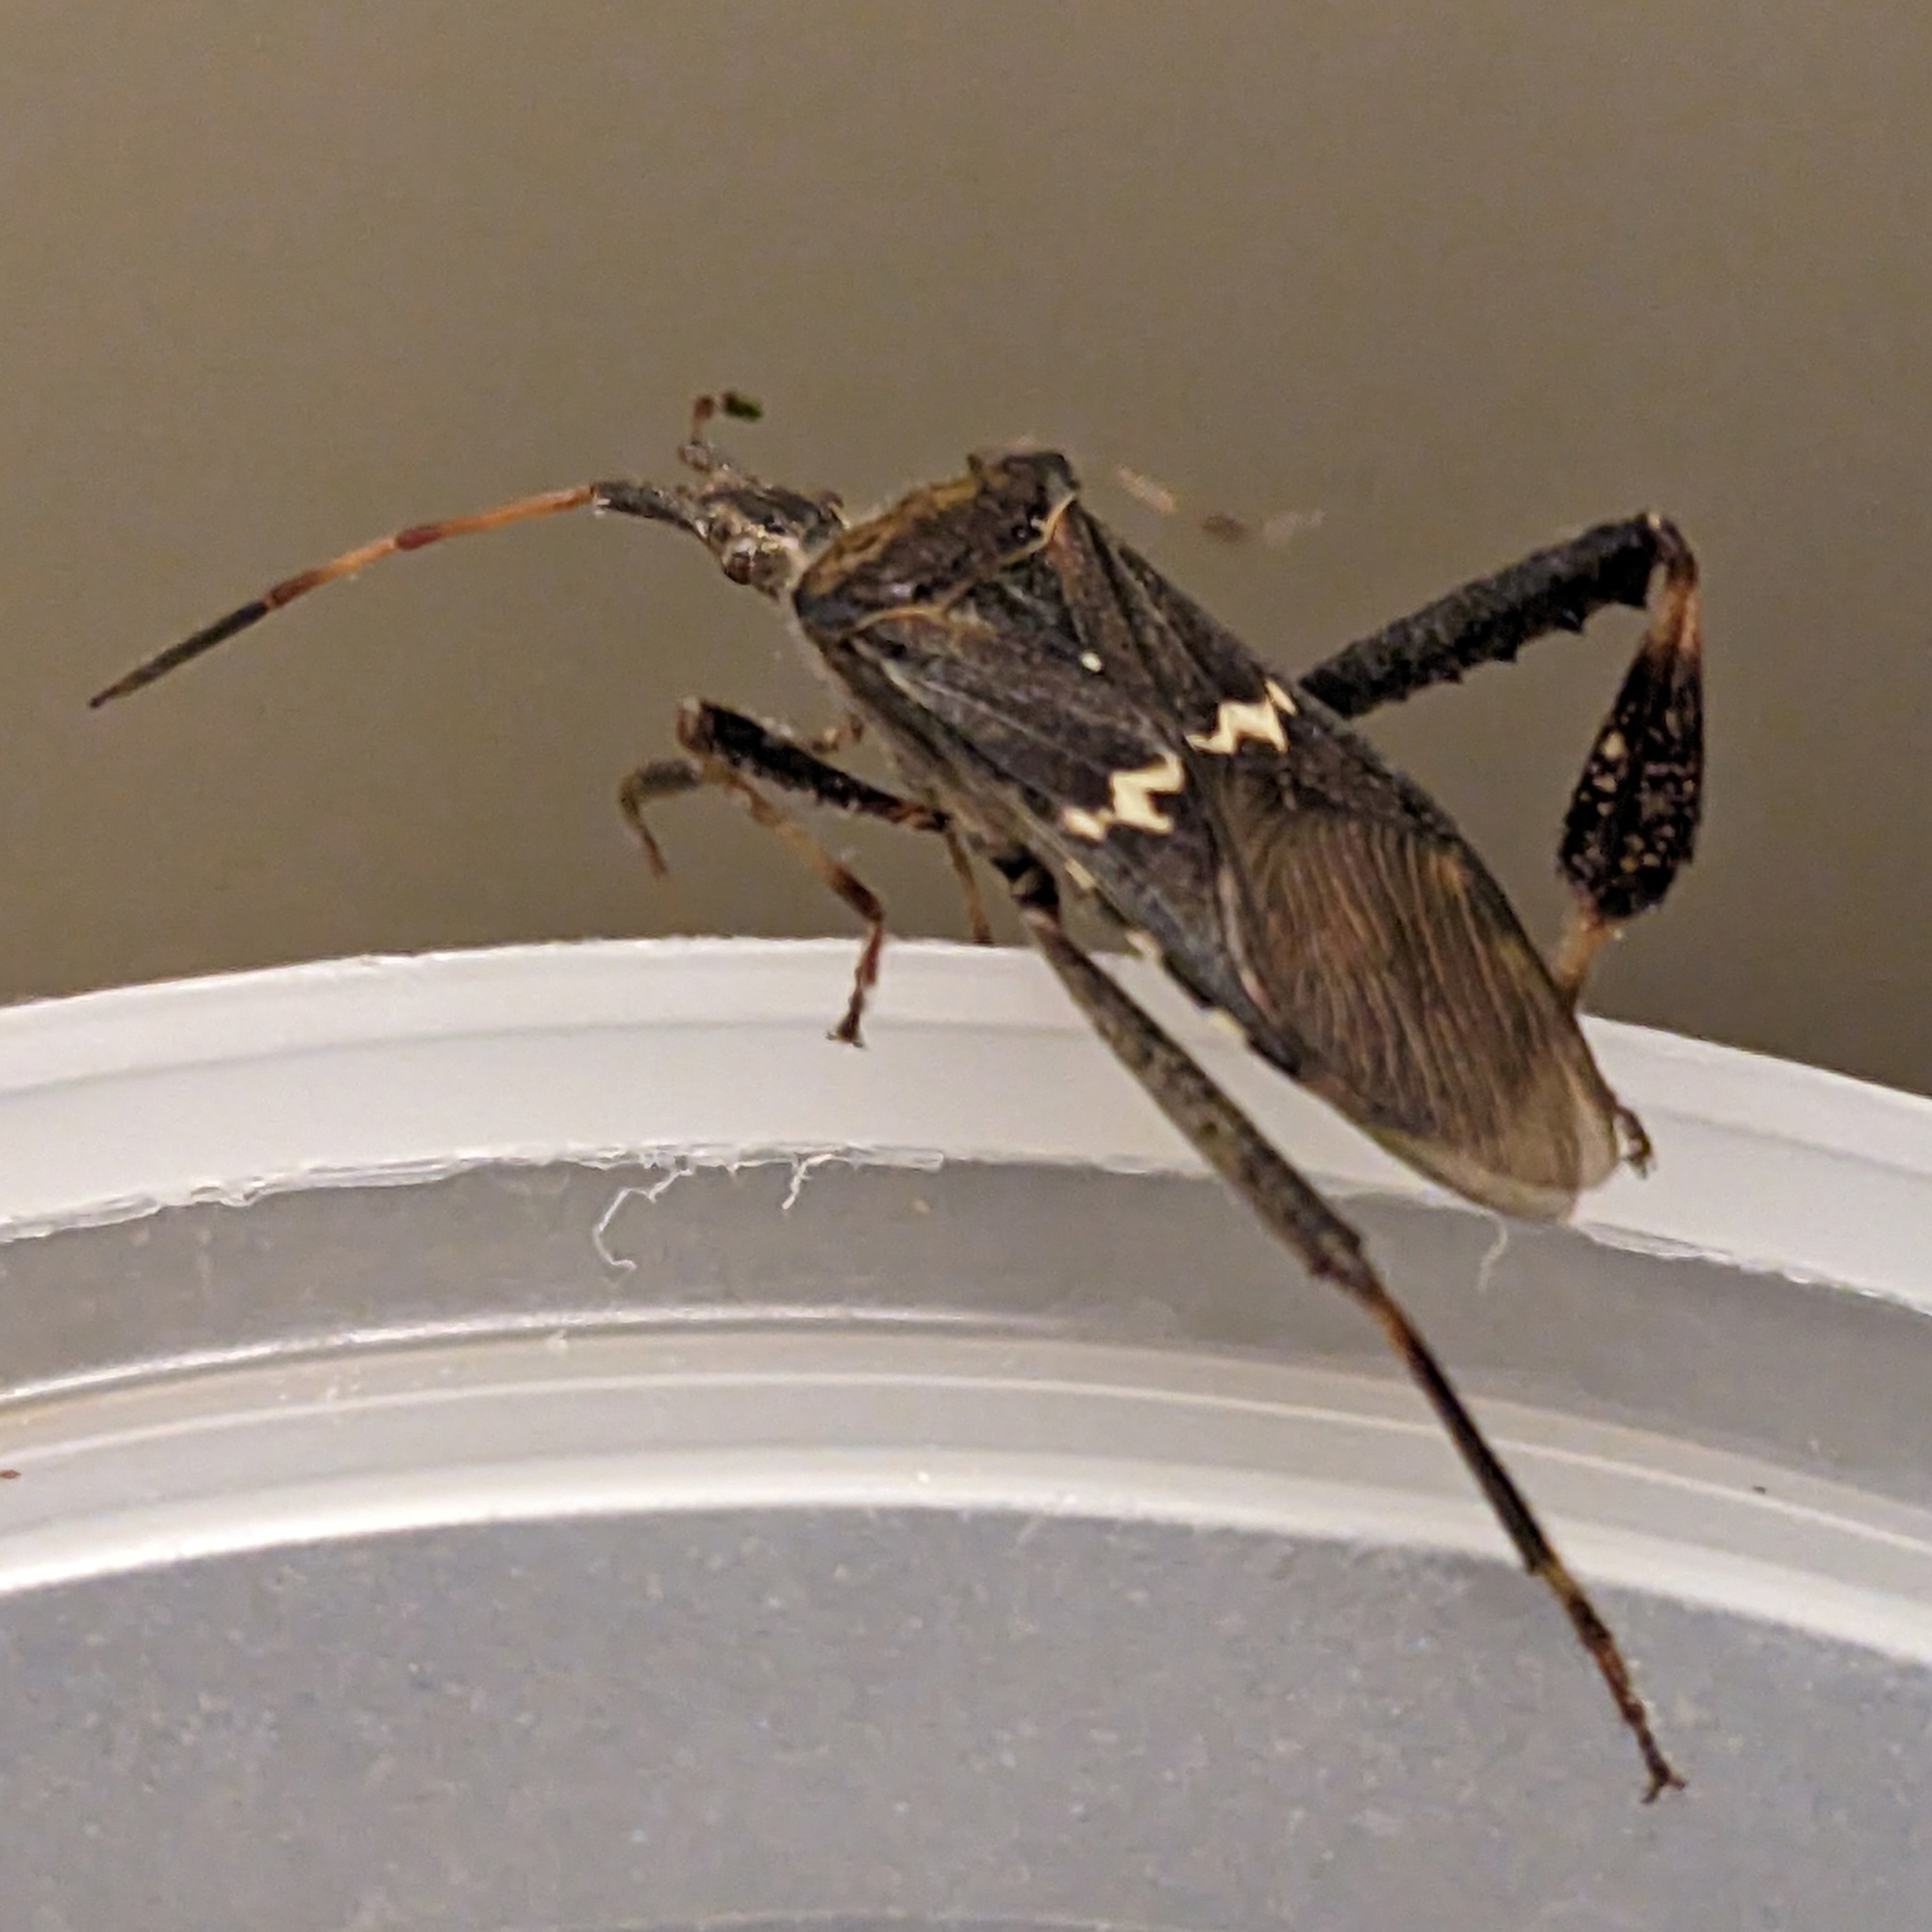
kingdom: Animalia
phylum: Arthropoda
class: Insecta
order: Hemiptera
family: Coreidae
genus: Leptoglossus
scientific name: Leptoglossus clypealis
